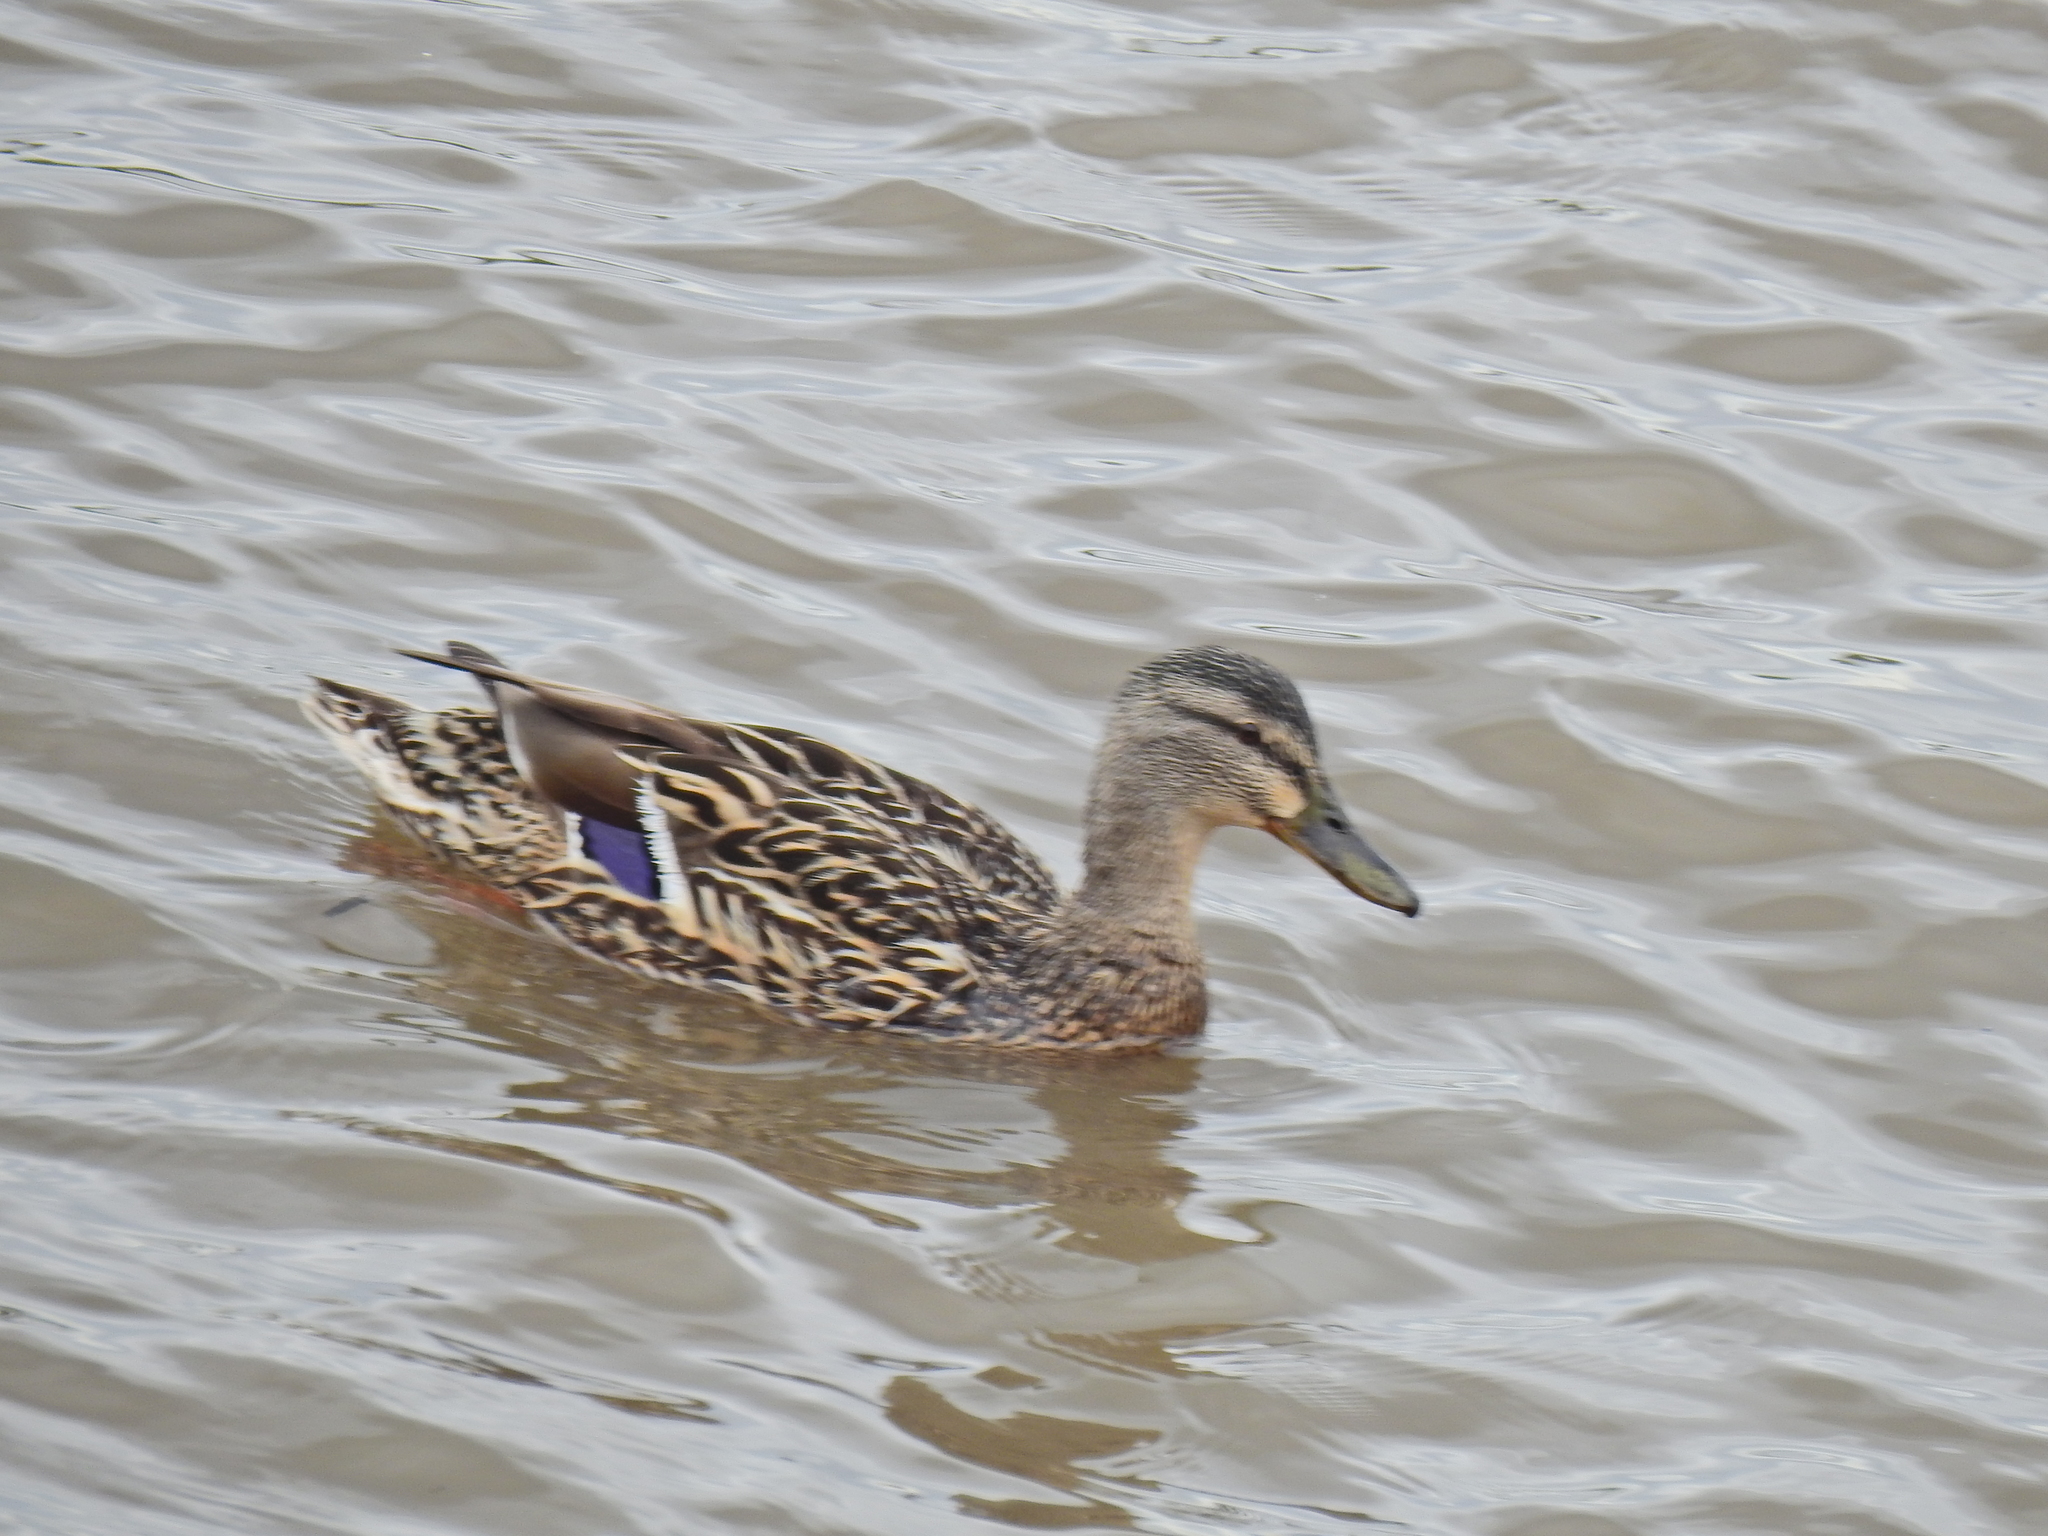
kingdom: Animalia
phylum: Chordata
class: Aves
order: Anseriformes
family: Anatidae
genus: Anas
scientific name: Anas platyrhynchos
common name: Mallard
